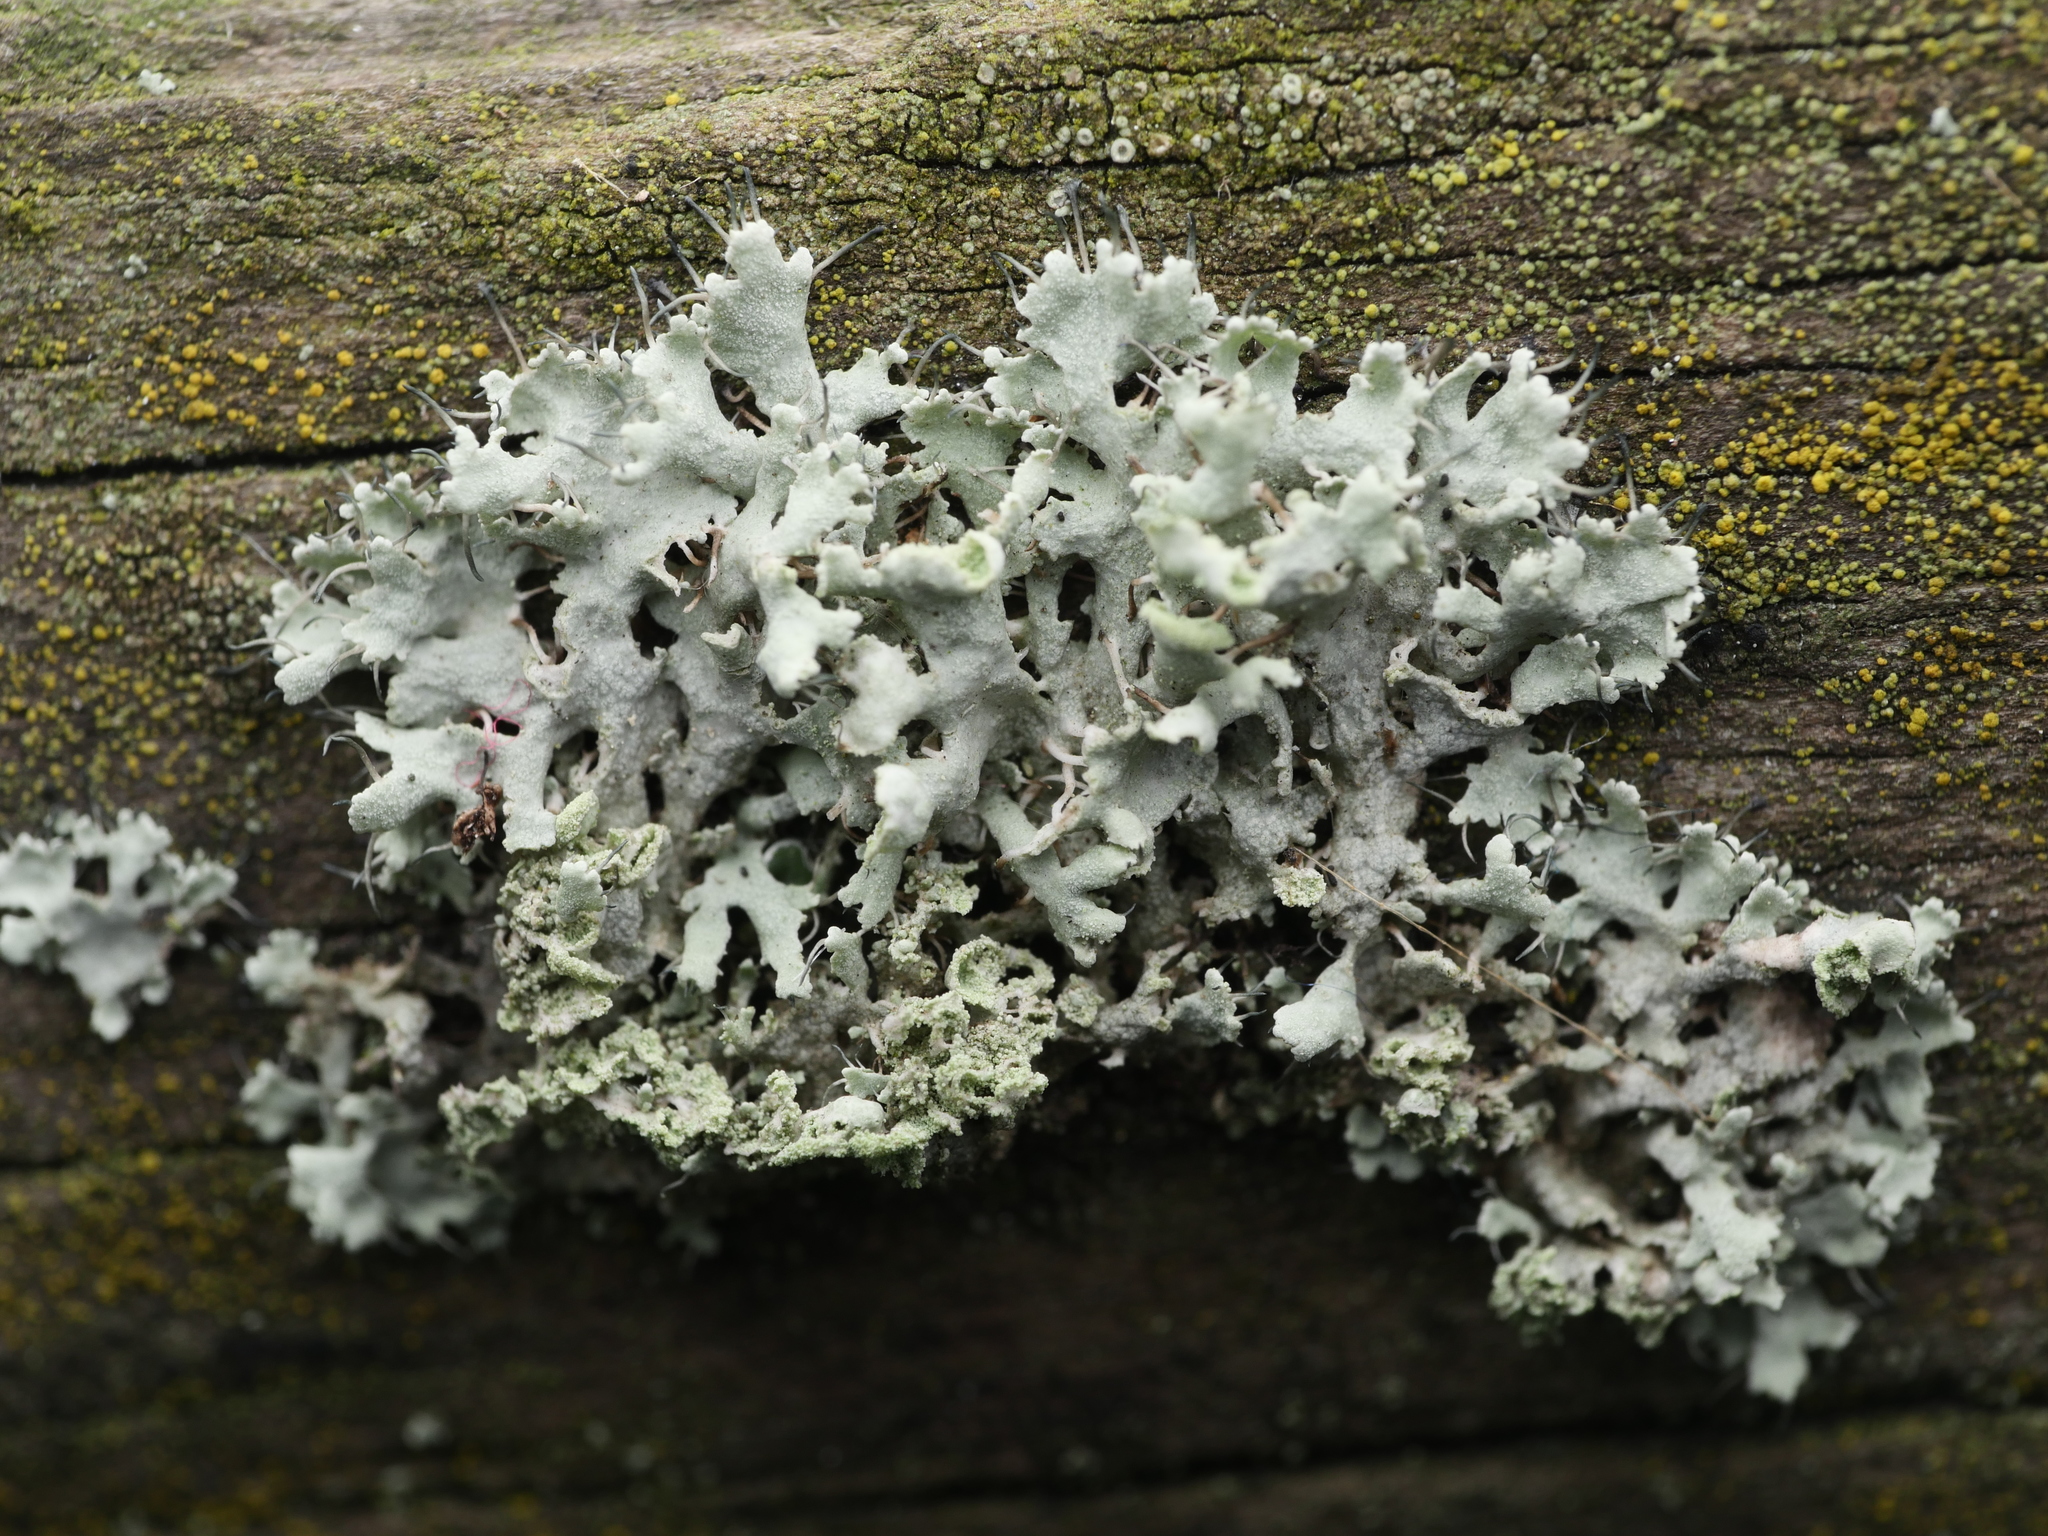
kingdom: Fungi
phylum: Ascomycota
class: Lecanoromycetes
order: Caliciales
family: Physciaceae
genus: Physcia
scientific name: Physcia tenella
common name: Fringed rosette lichen
